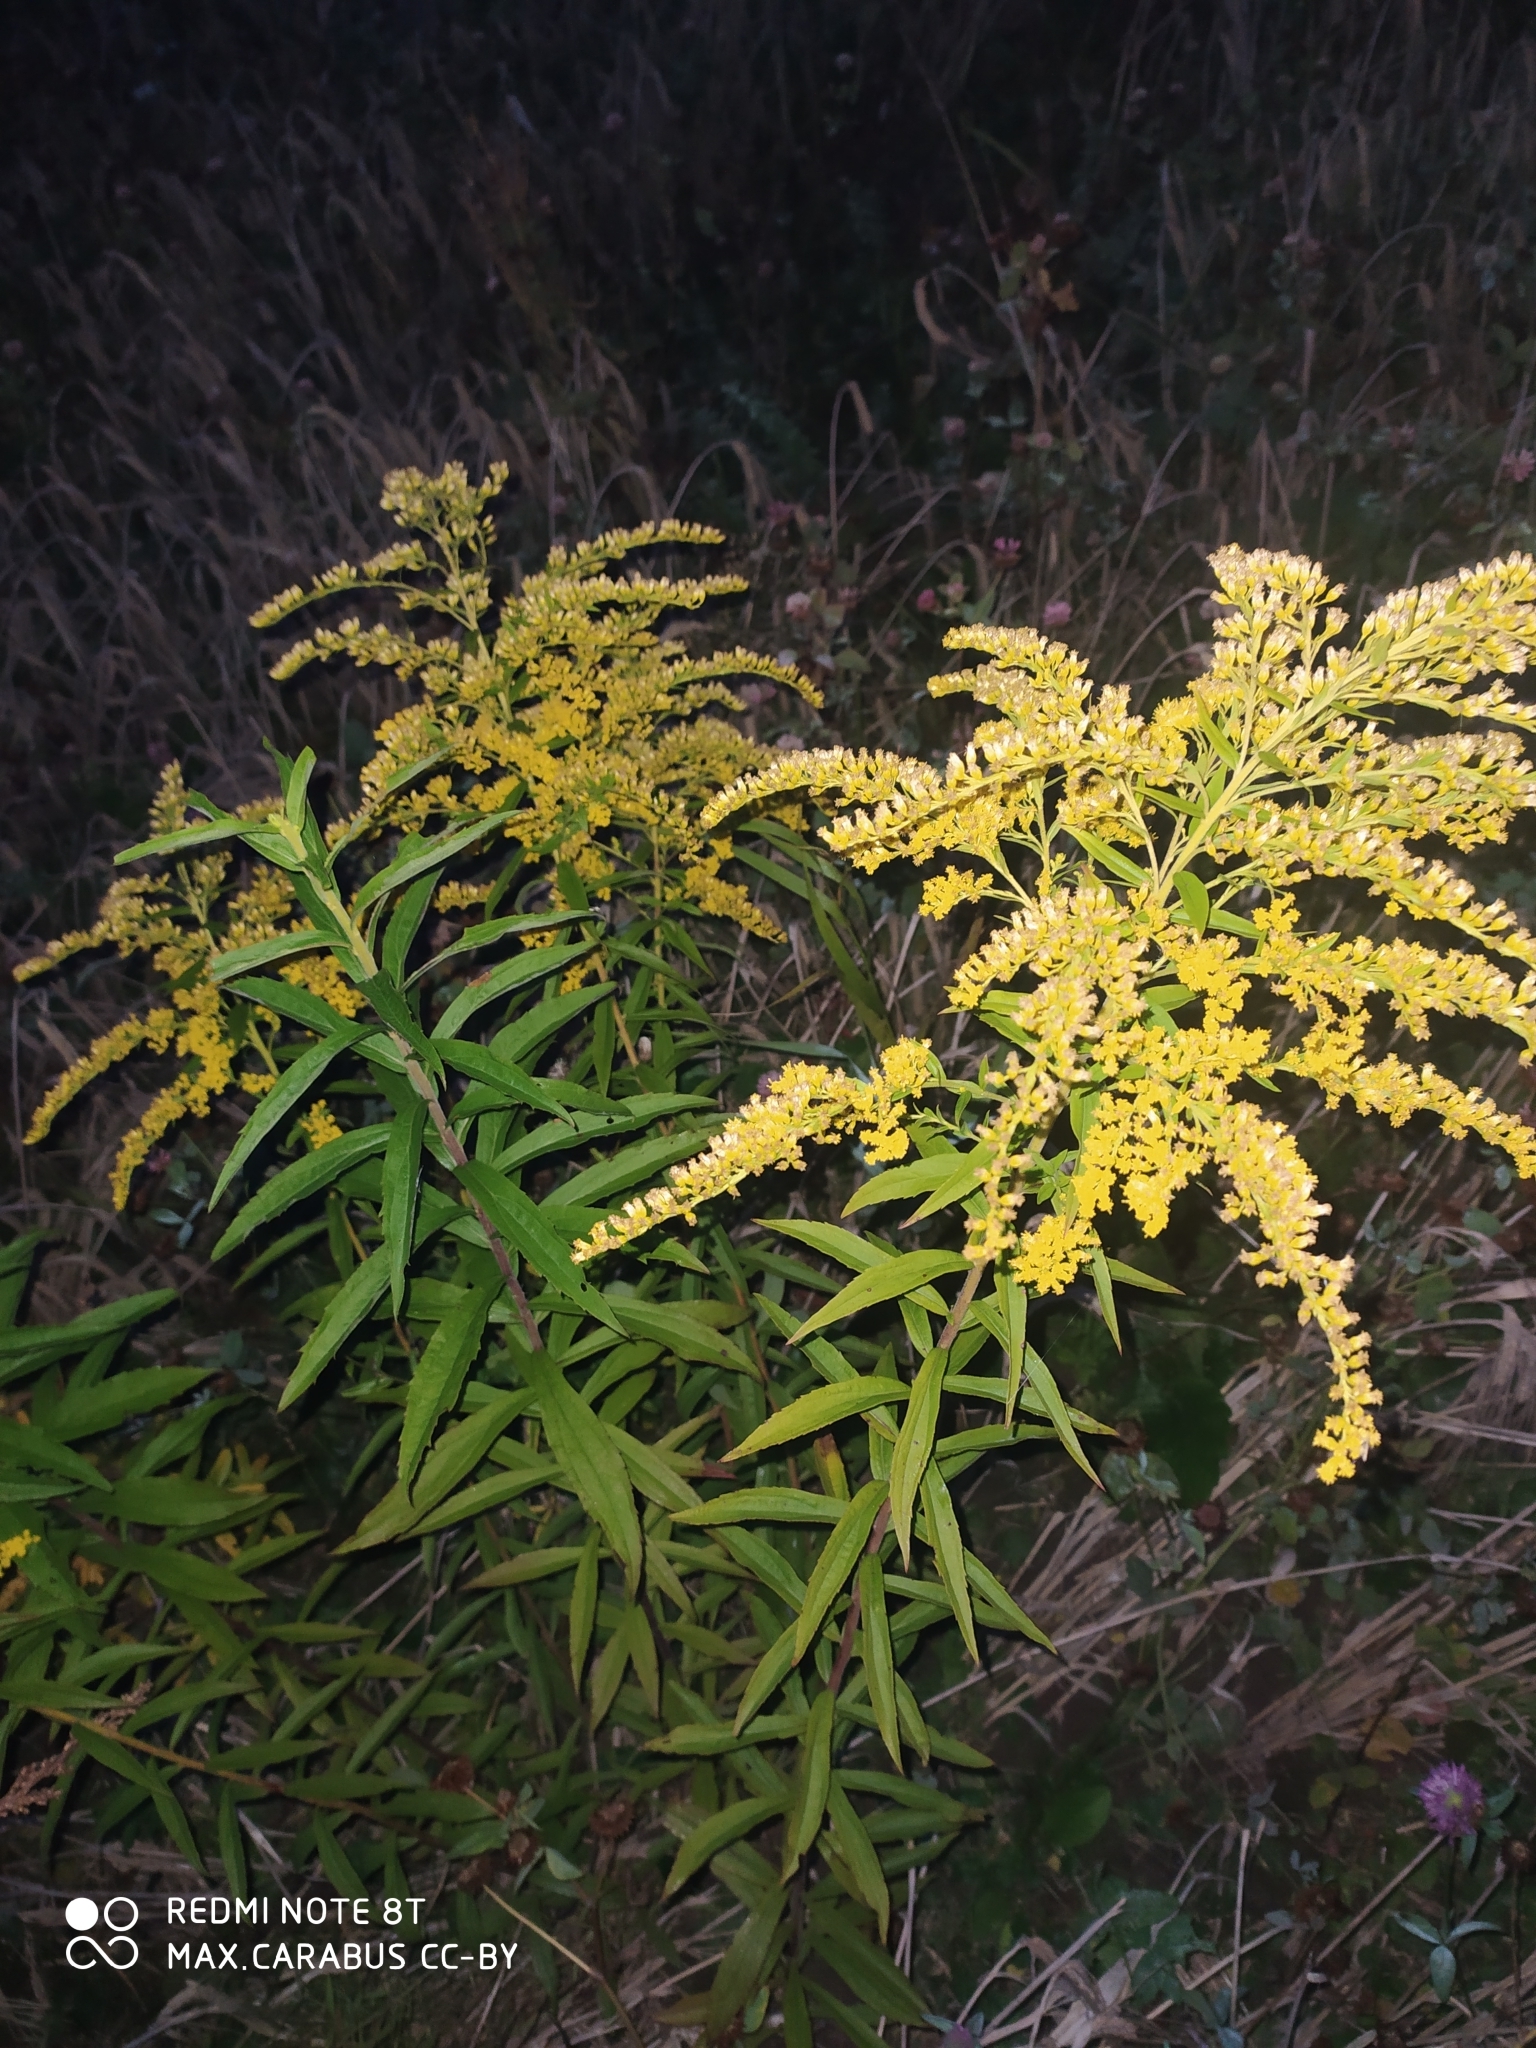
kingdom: Plantae
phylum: Tracheophyta
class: Magnoliopsida
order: Asterales
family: Asteraceae
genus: Solidago
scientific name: Solidago canadensis
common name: Canada goldenrod
